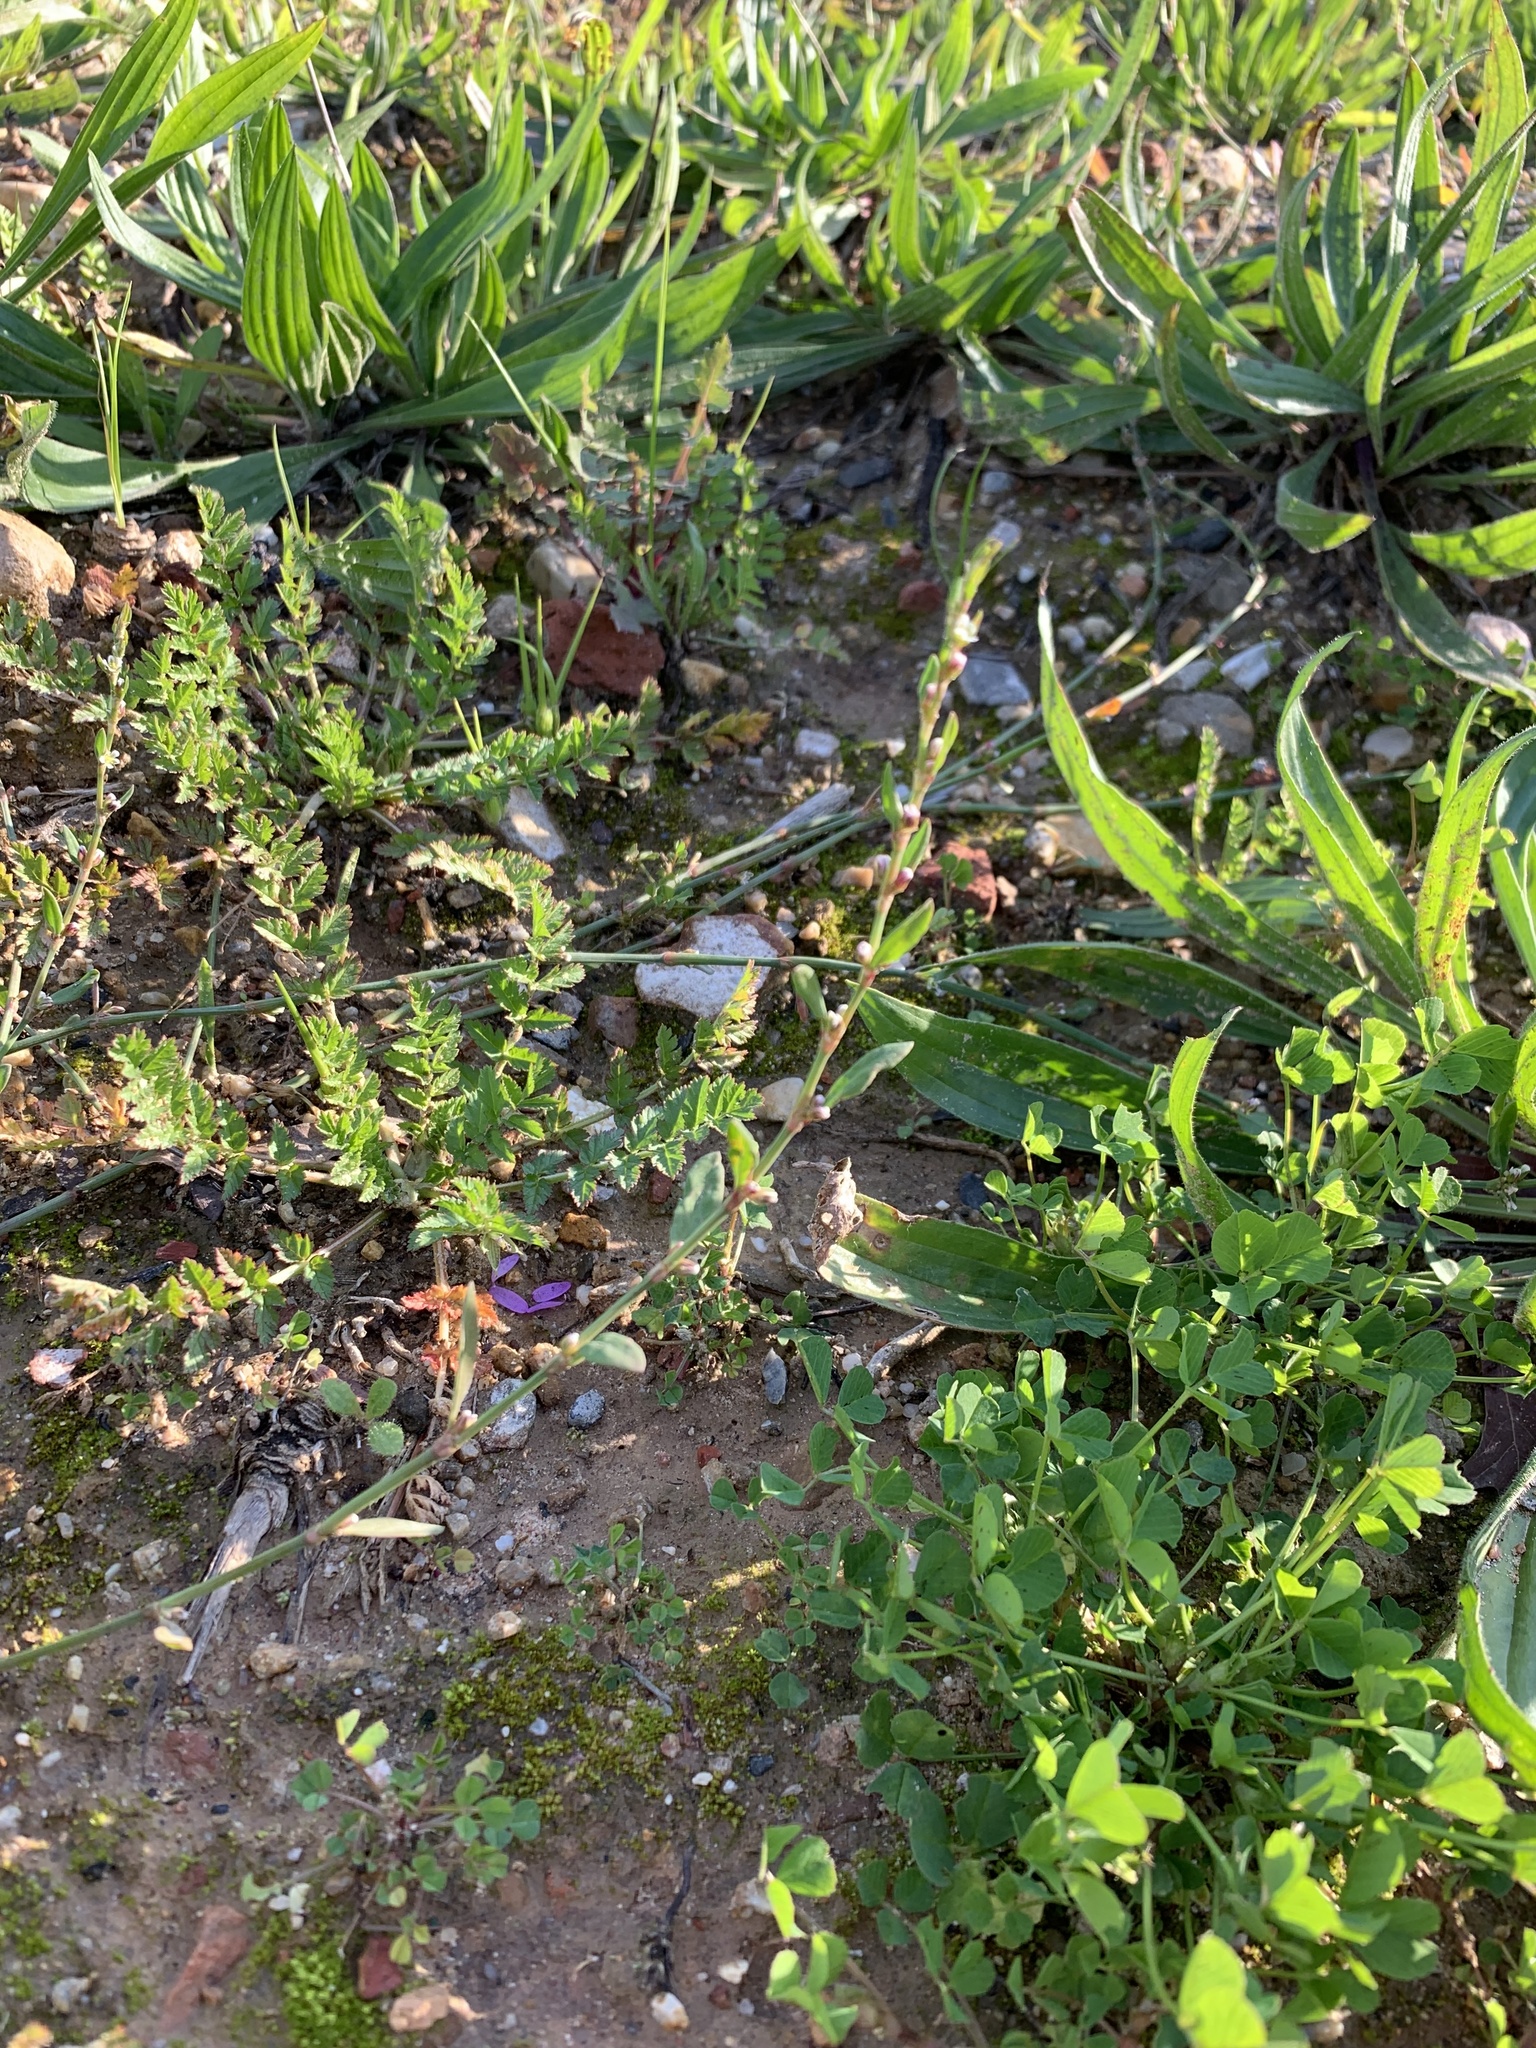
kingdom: Plantae
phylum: Tracheophyta
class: Magnoliopsida
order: Caryophyllales
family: Polygonaceae
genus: Polygonum
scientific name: Polygonum aviculare
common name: Prostrate knotweed
